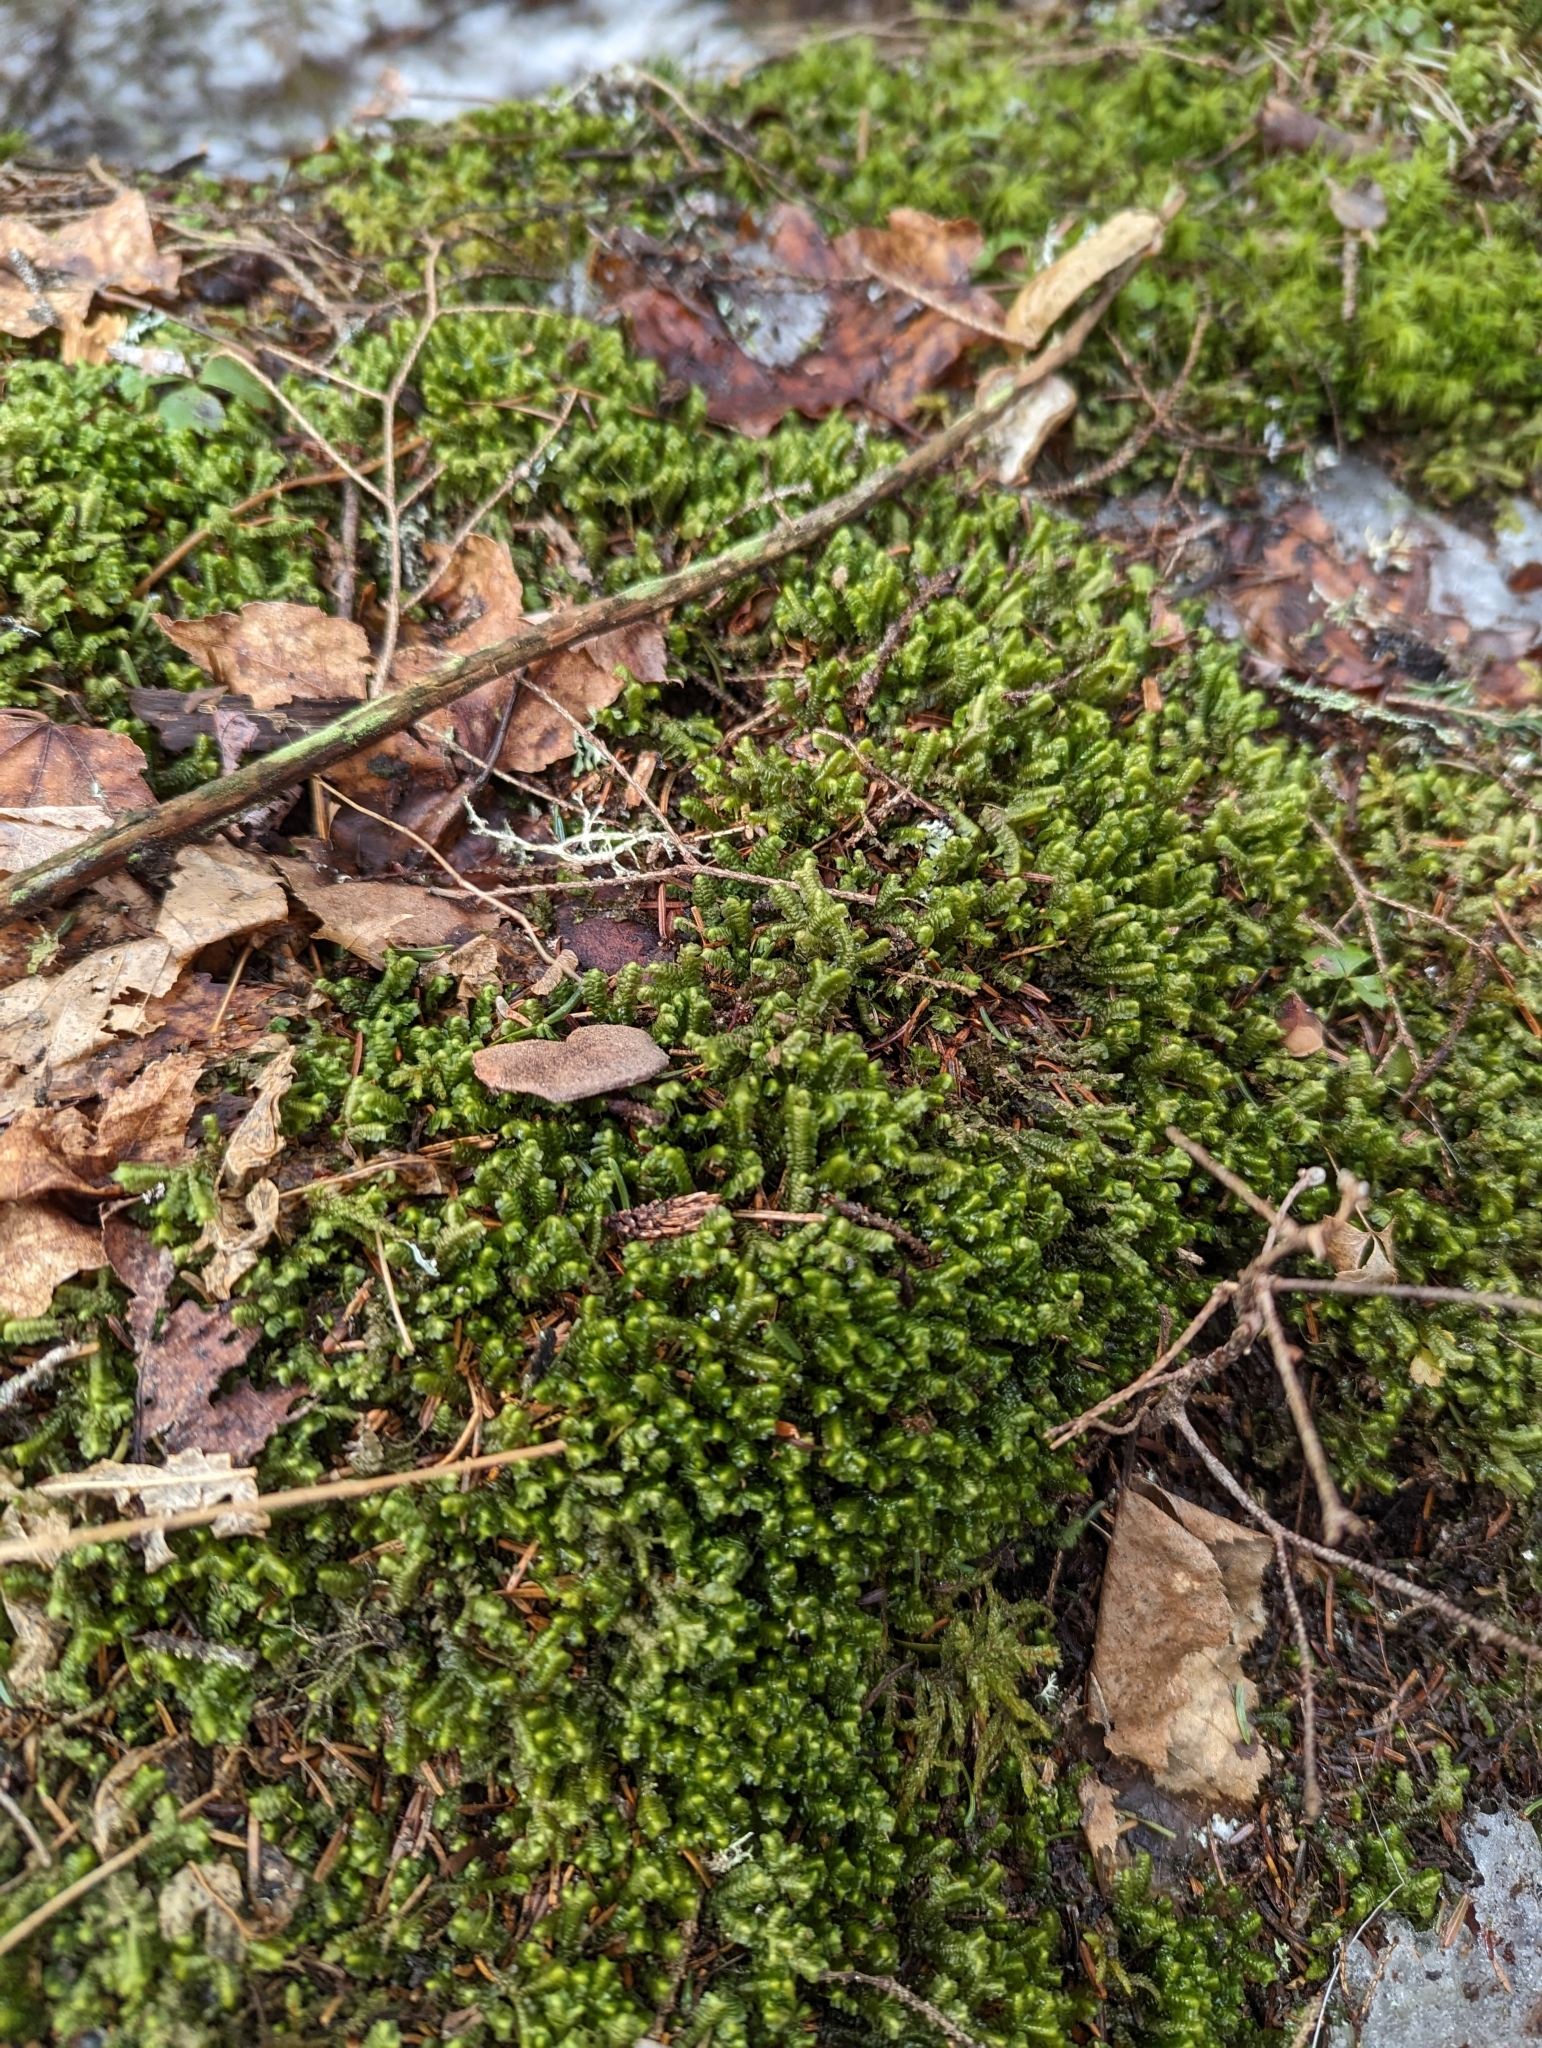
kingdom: Plantae
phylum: Marchantiophyta
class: Jungermanniopsida
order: Jungermanniales
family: Lepidoziaceae
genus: Bazzania
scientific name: Bazzania trilobata
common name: Three-lobed whipwort
